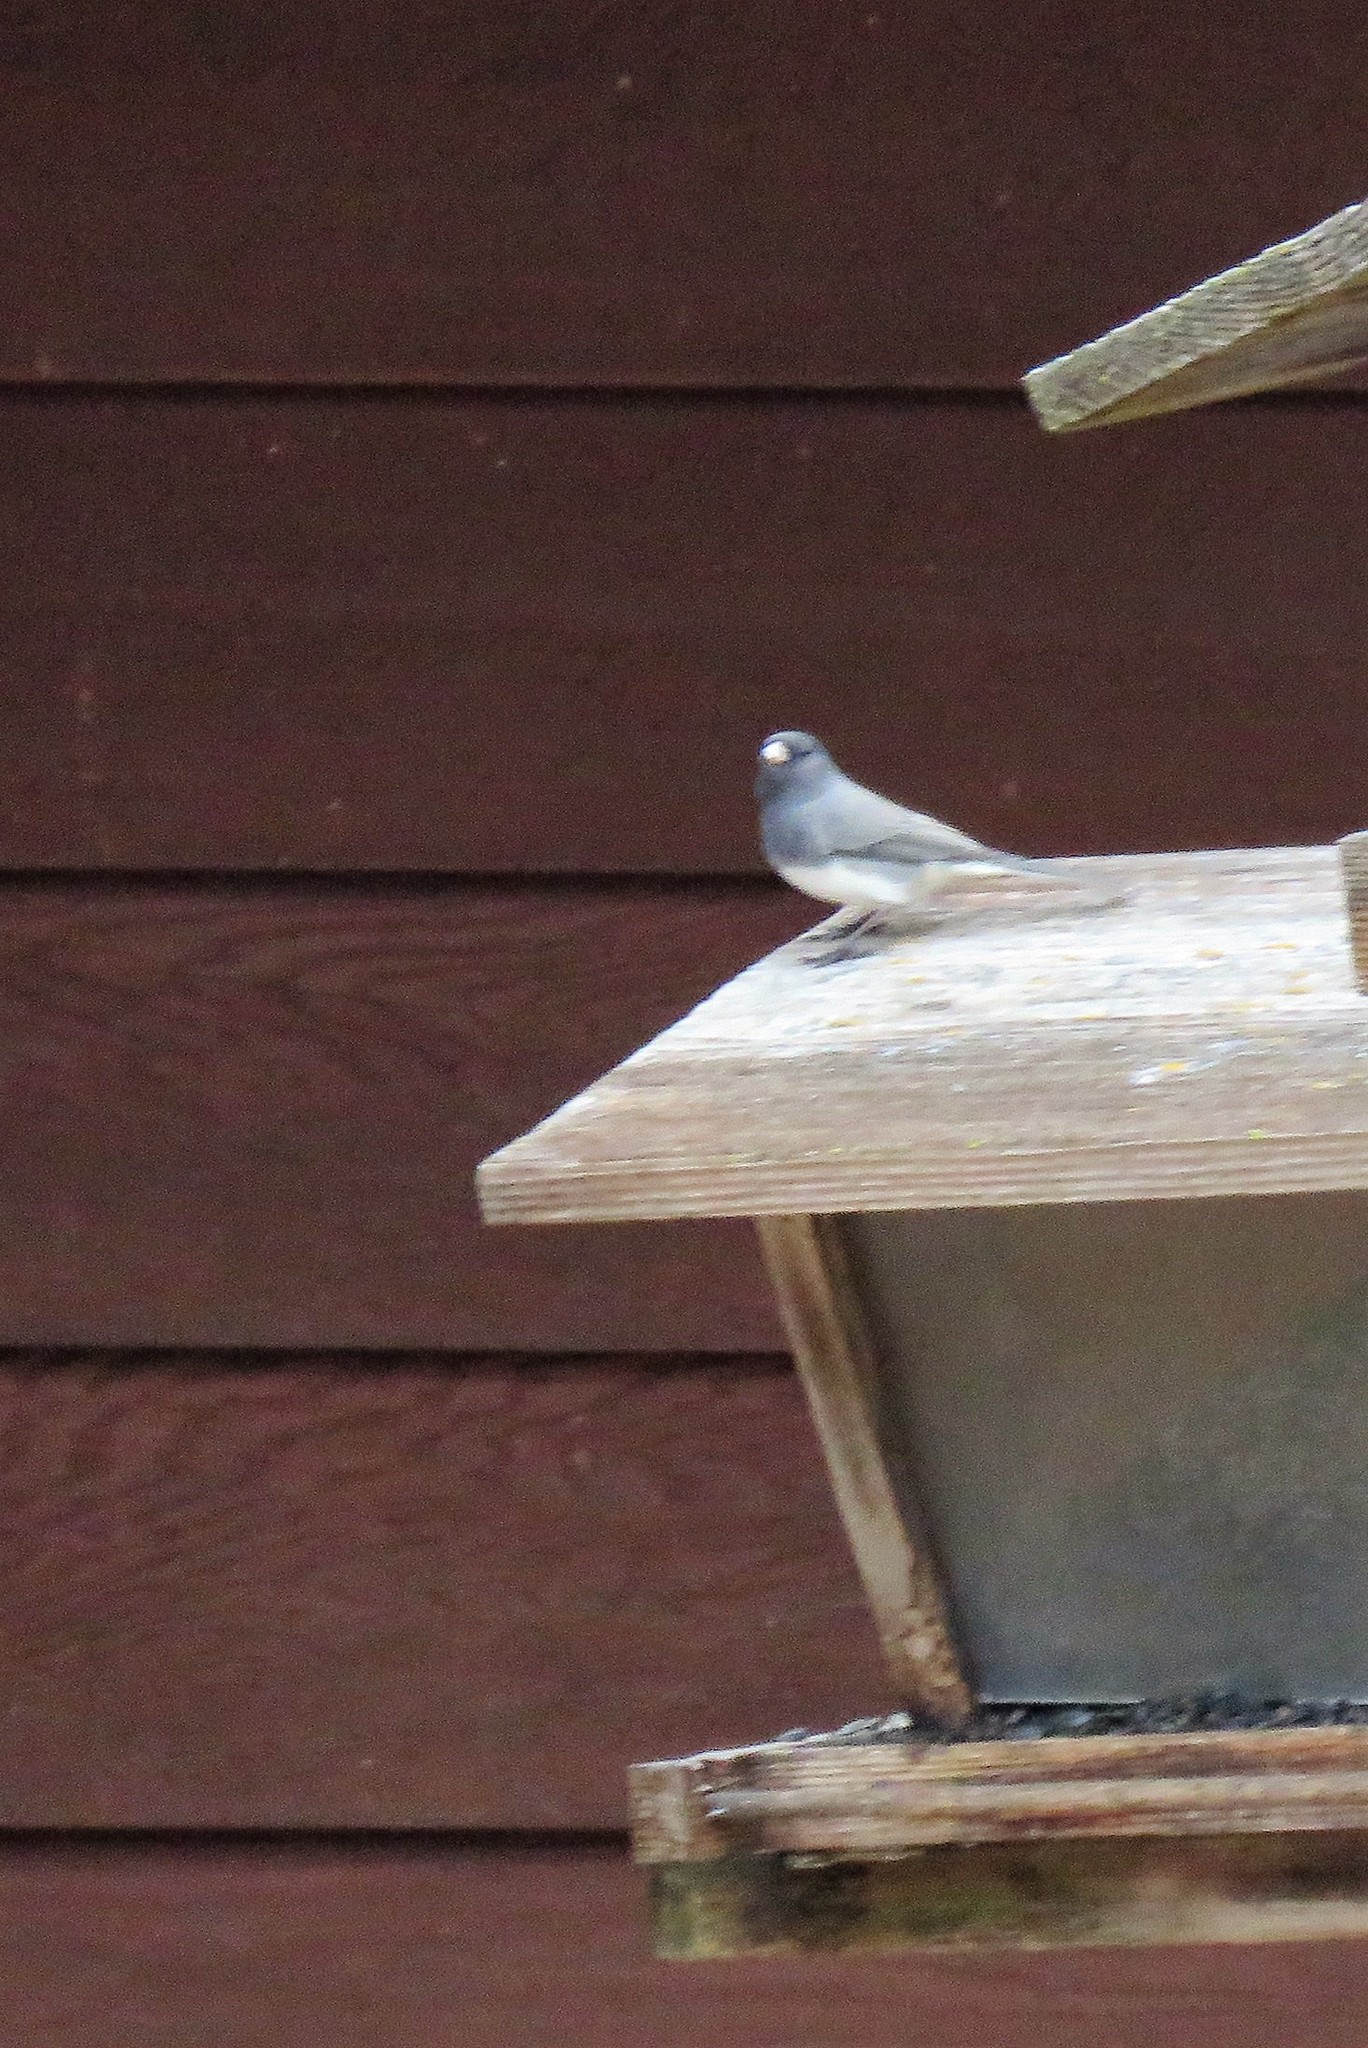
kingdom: Animalia
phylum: Chordata
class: Aves
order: Passeriformes
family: Passerellidae
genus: Junco
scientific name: Junco hyemalis
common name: Dark-eyed junco
